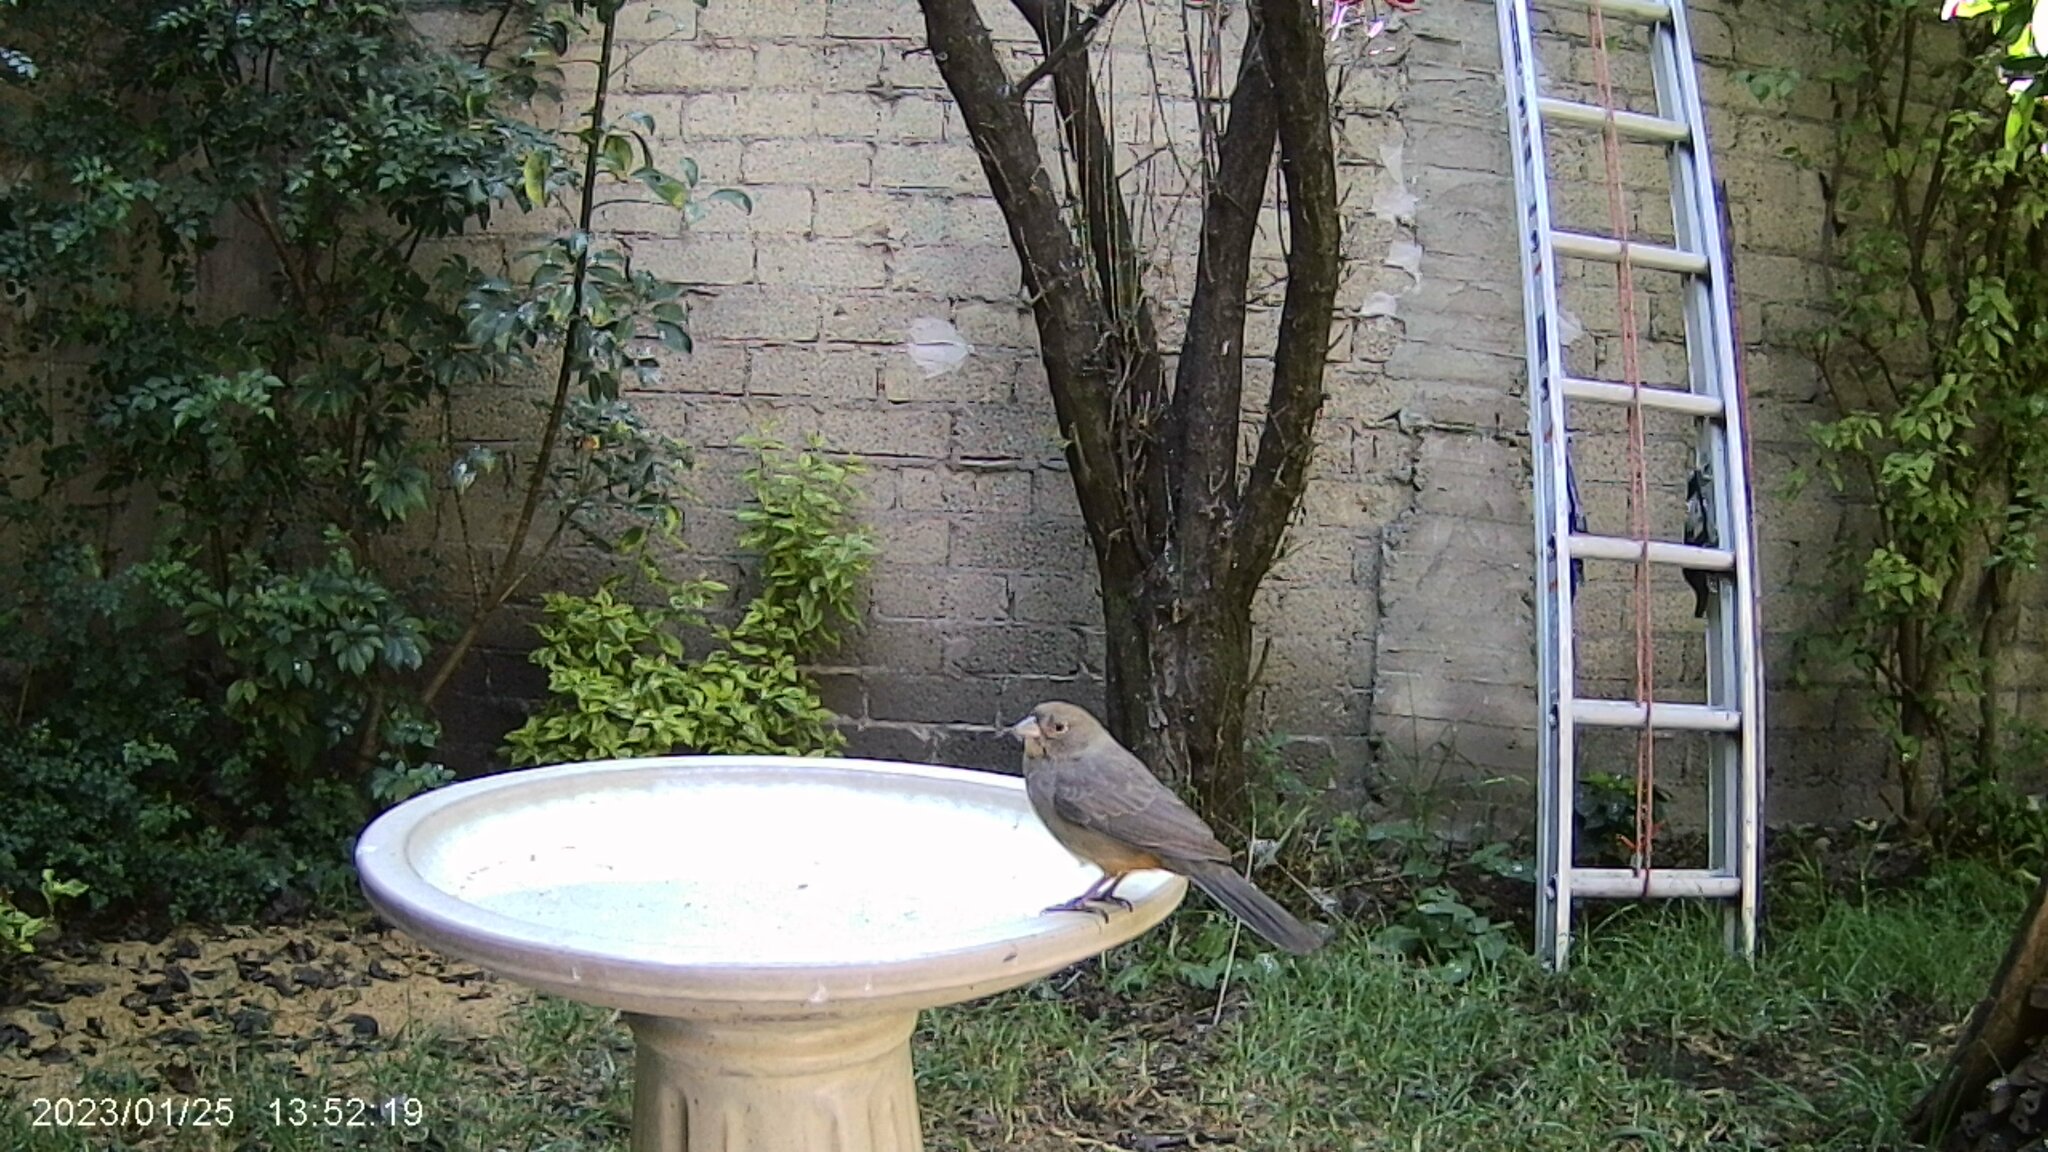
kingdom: Animalia
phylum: Chordata
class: Aves
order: Passeriformes
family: Passerellidae
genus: Melozone
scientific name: Melozone fusca
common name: Canyon towhee
